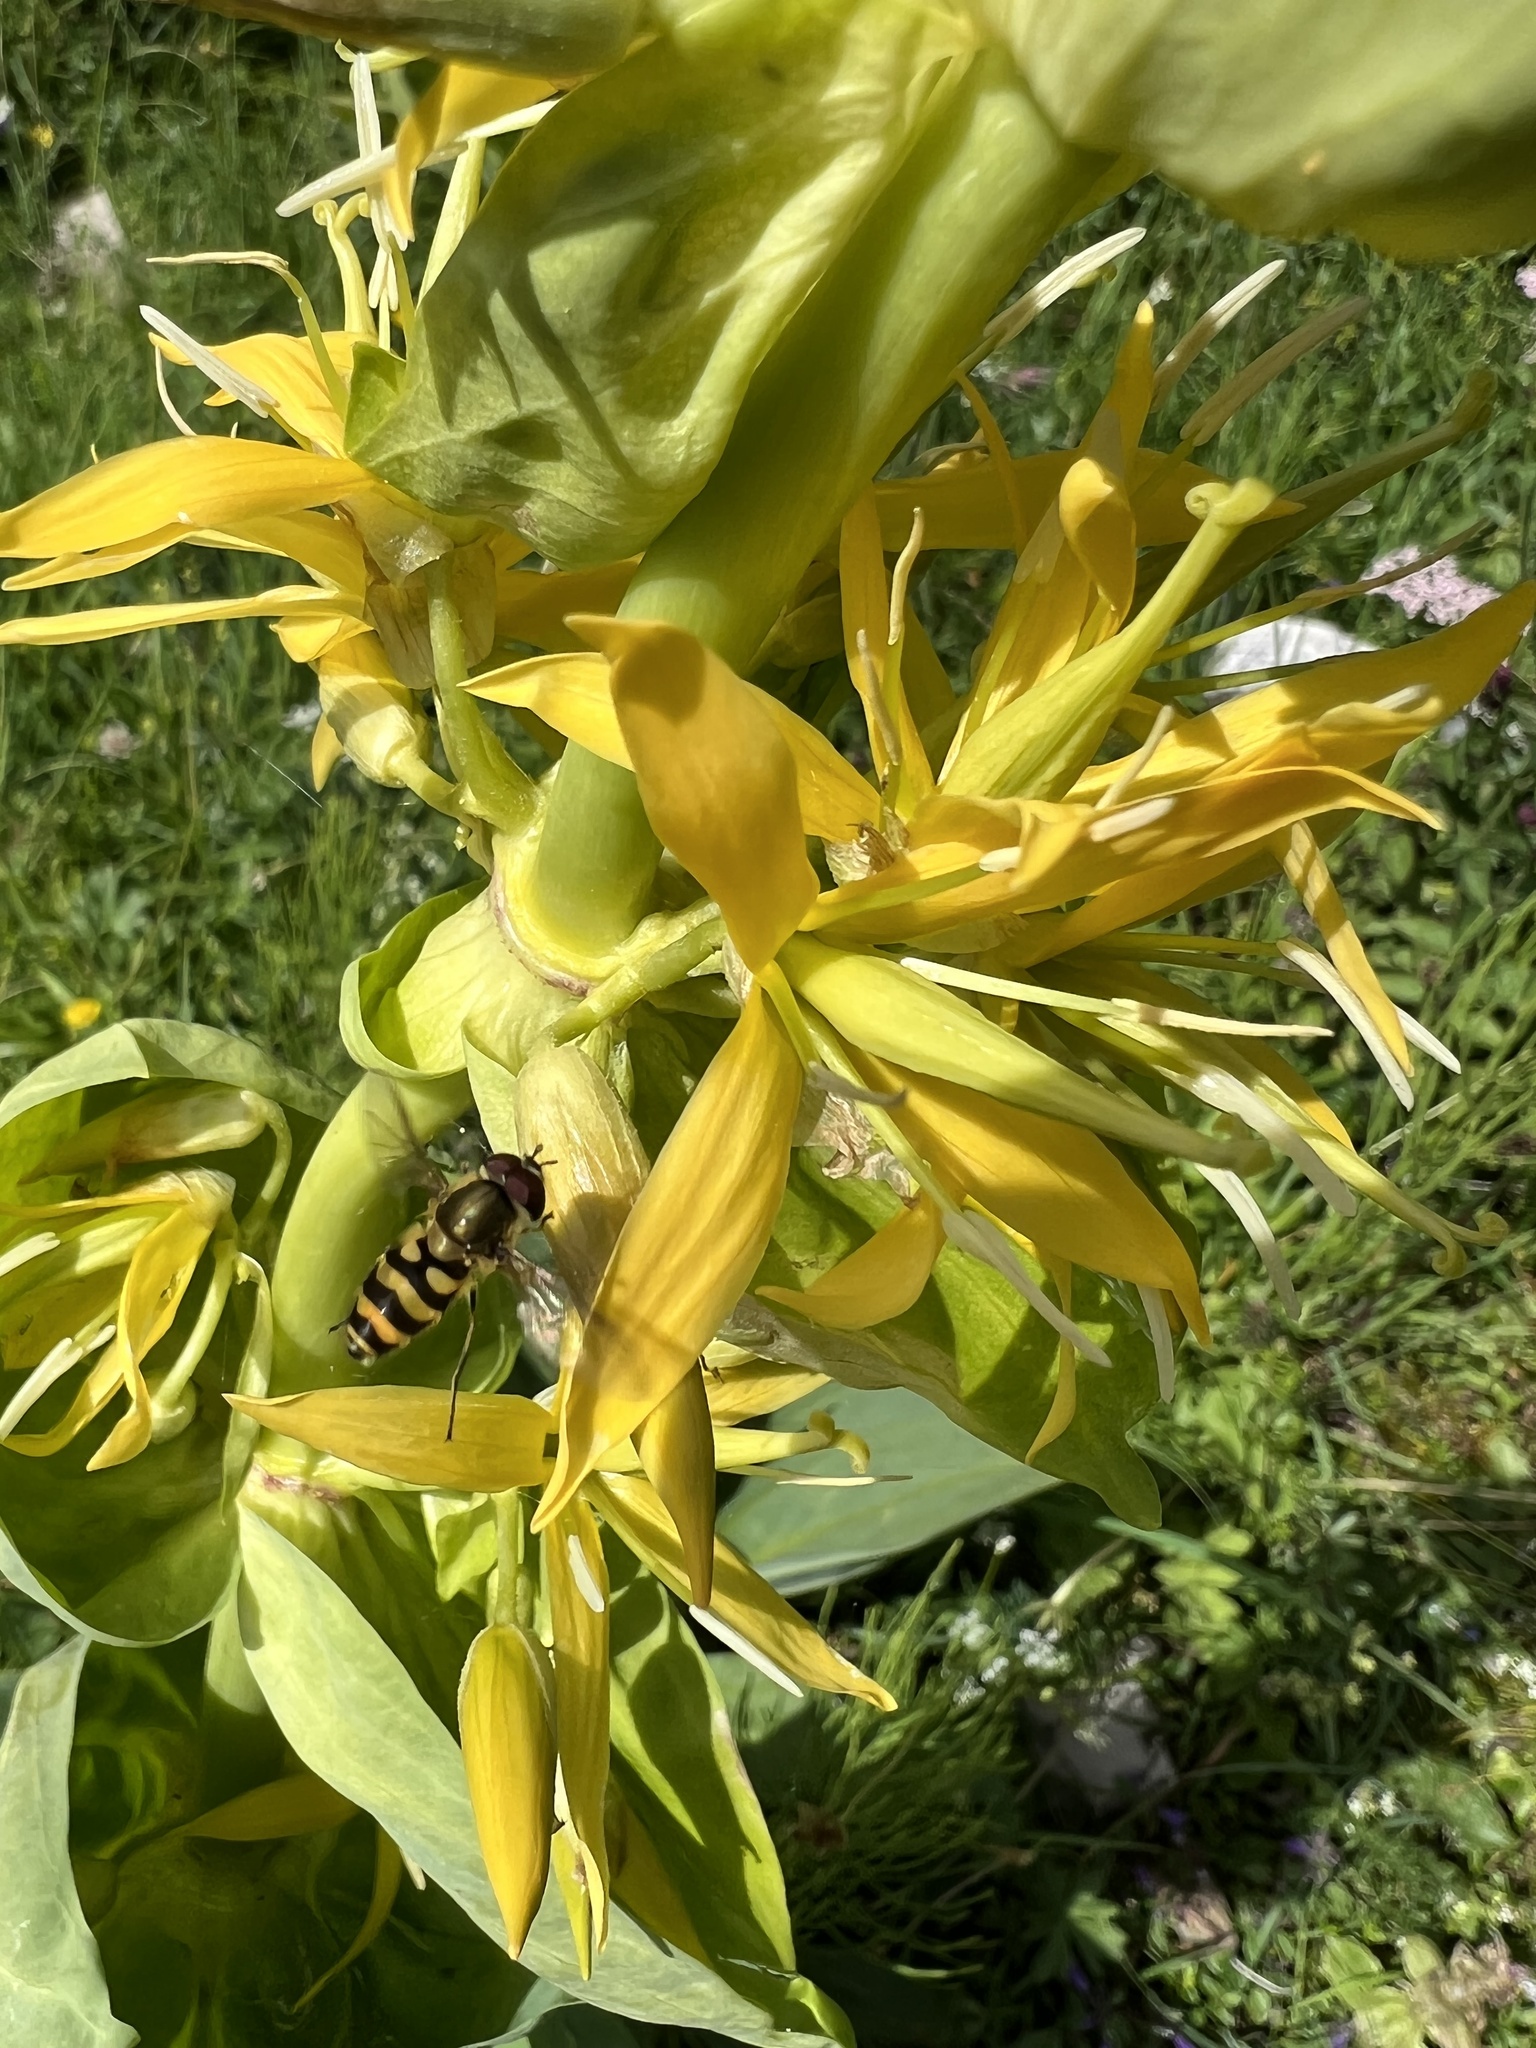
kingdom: Plantae
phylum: Tracheophyta
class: Magnoliopsida
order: Gentianales
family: Gentianaceae
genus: Gentiana
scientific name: Gentiana lutea
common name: Great yellow gentian
